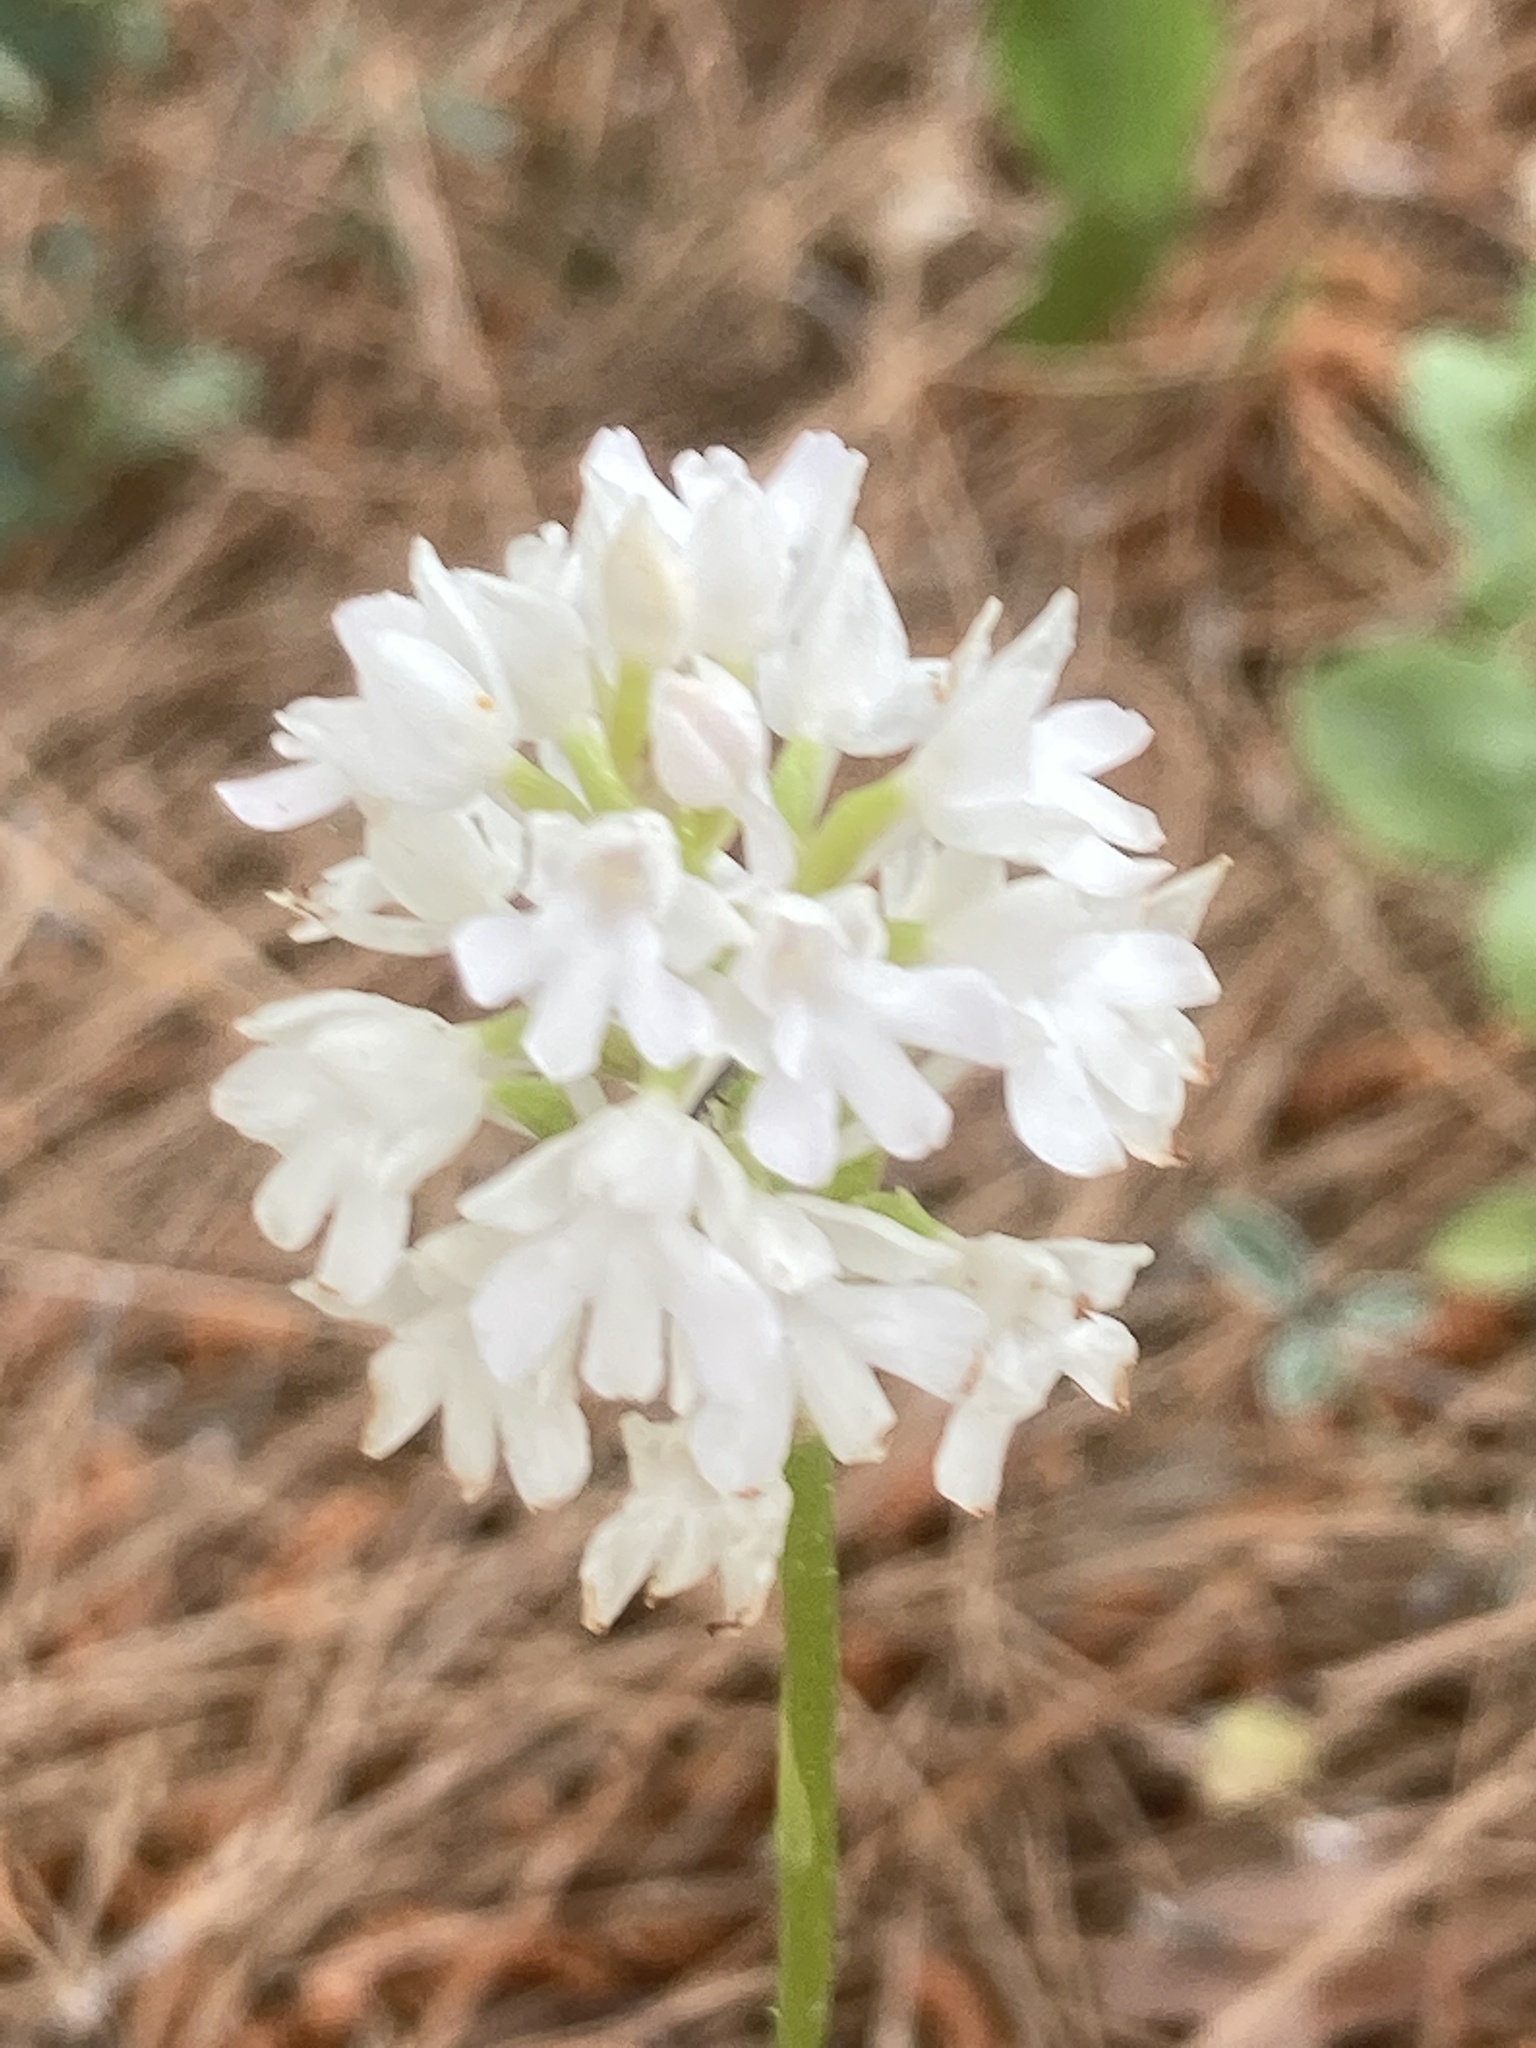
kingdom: Plantae
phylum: Tracheophyta
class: Liliopsida
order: Asparagales
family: Orchidaceae
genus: Anacamptis
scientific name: Anacamptis pyramidalis
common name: Pyramidal orchid
